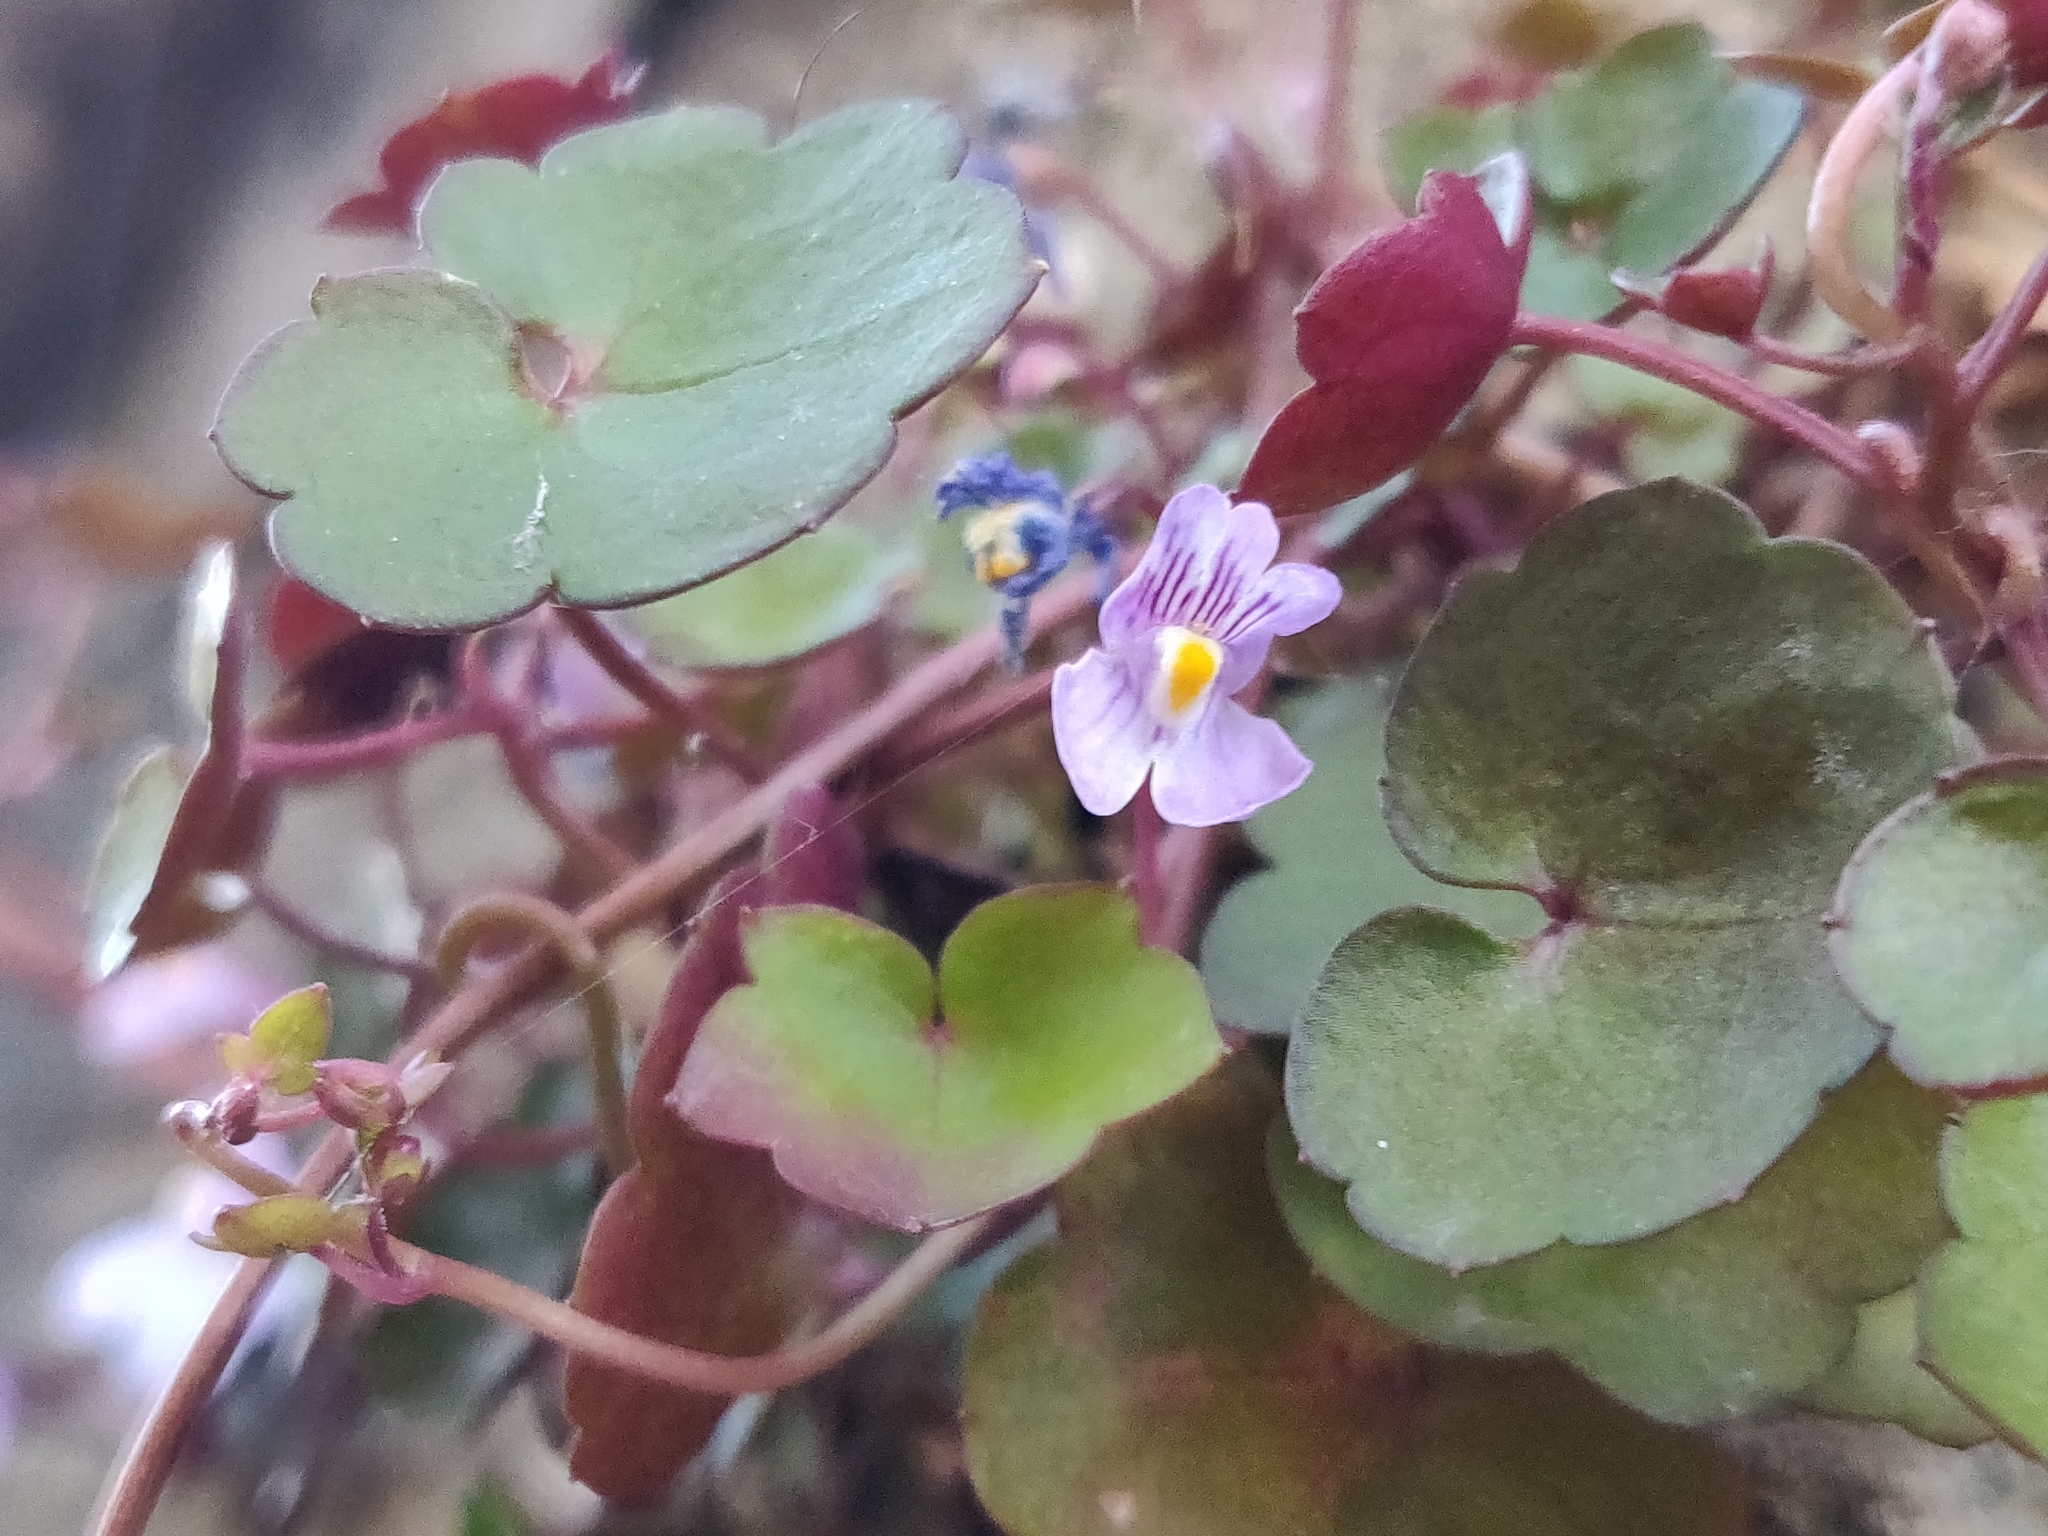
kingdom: Plantae
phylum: Tracheophyta
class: Magnoliopsida
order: Lamiales
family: Plantaginaceae
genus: Cymbalaria
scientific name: Cymbalaria muralis
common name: Ivy-leaved toadflax
